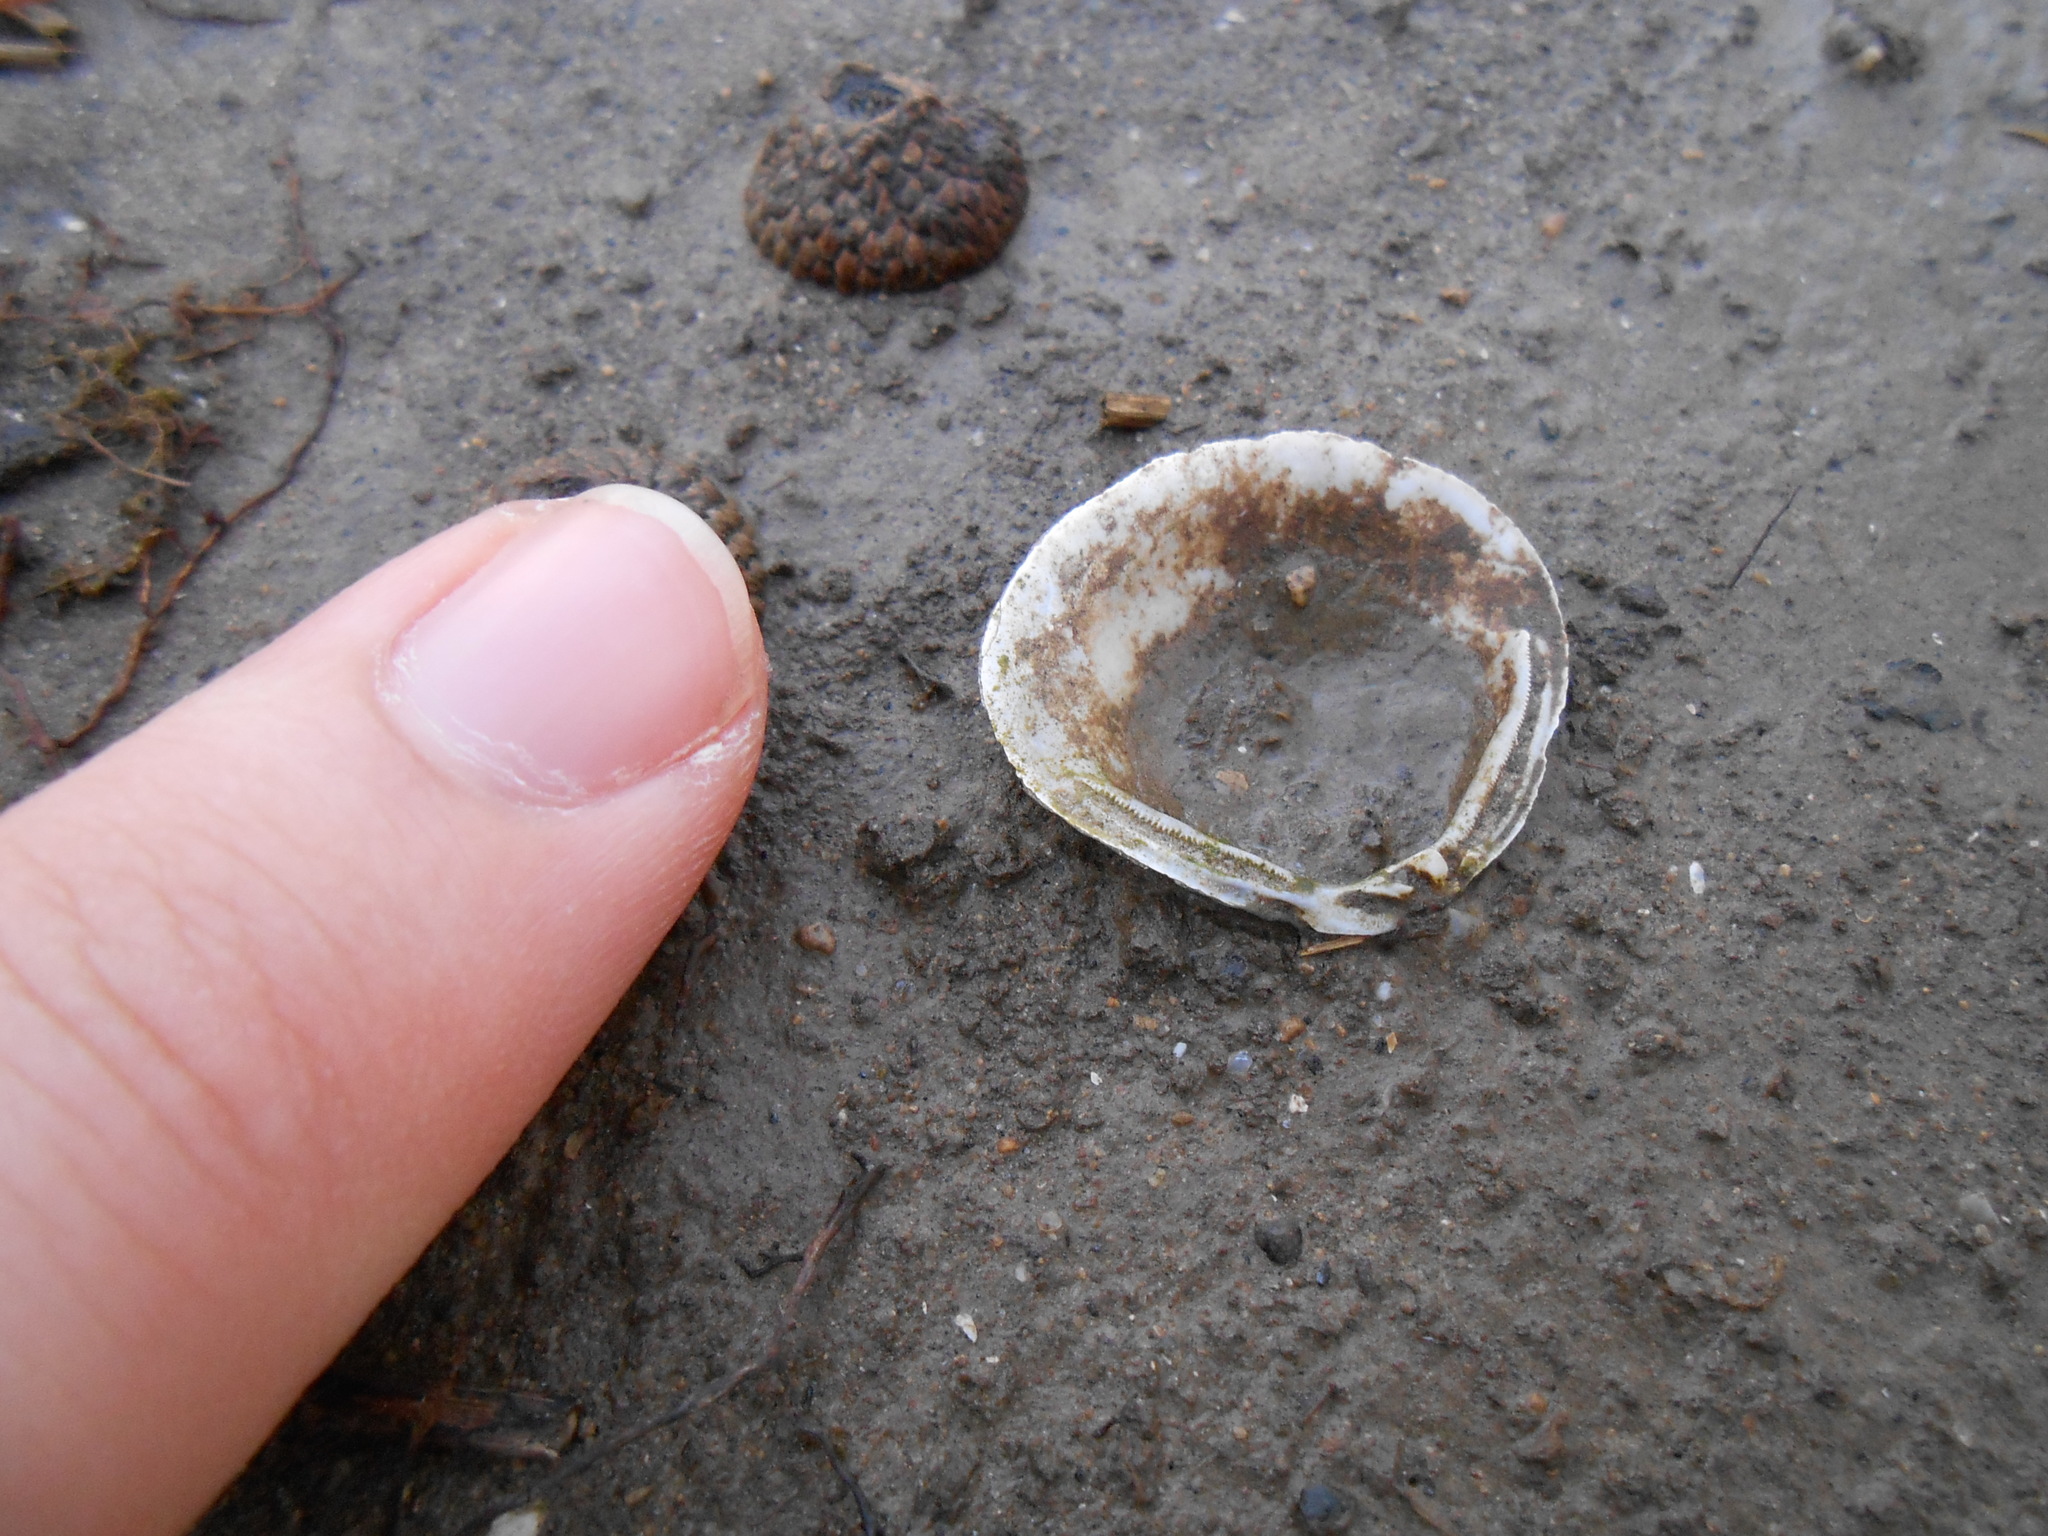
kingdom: Animalia
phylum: Mollusca
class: Bivalvia
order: Venerida
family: Cyrenidae
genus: Corbicula
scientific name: Corbicula fluminea
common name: Asian clam
